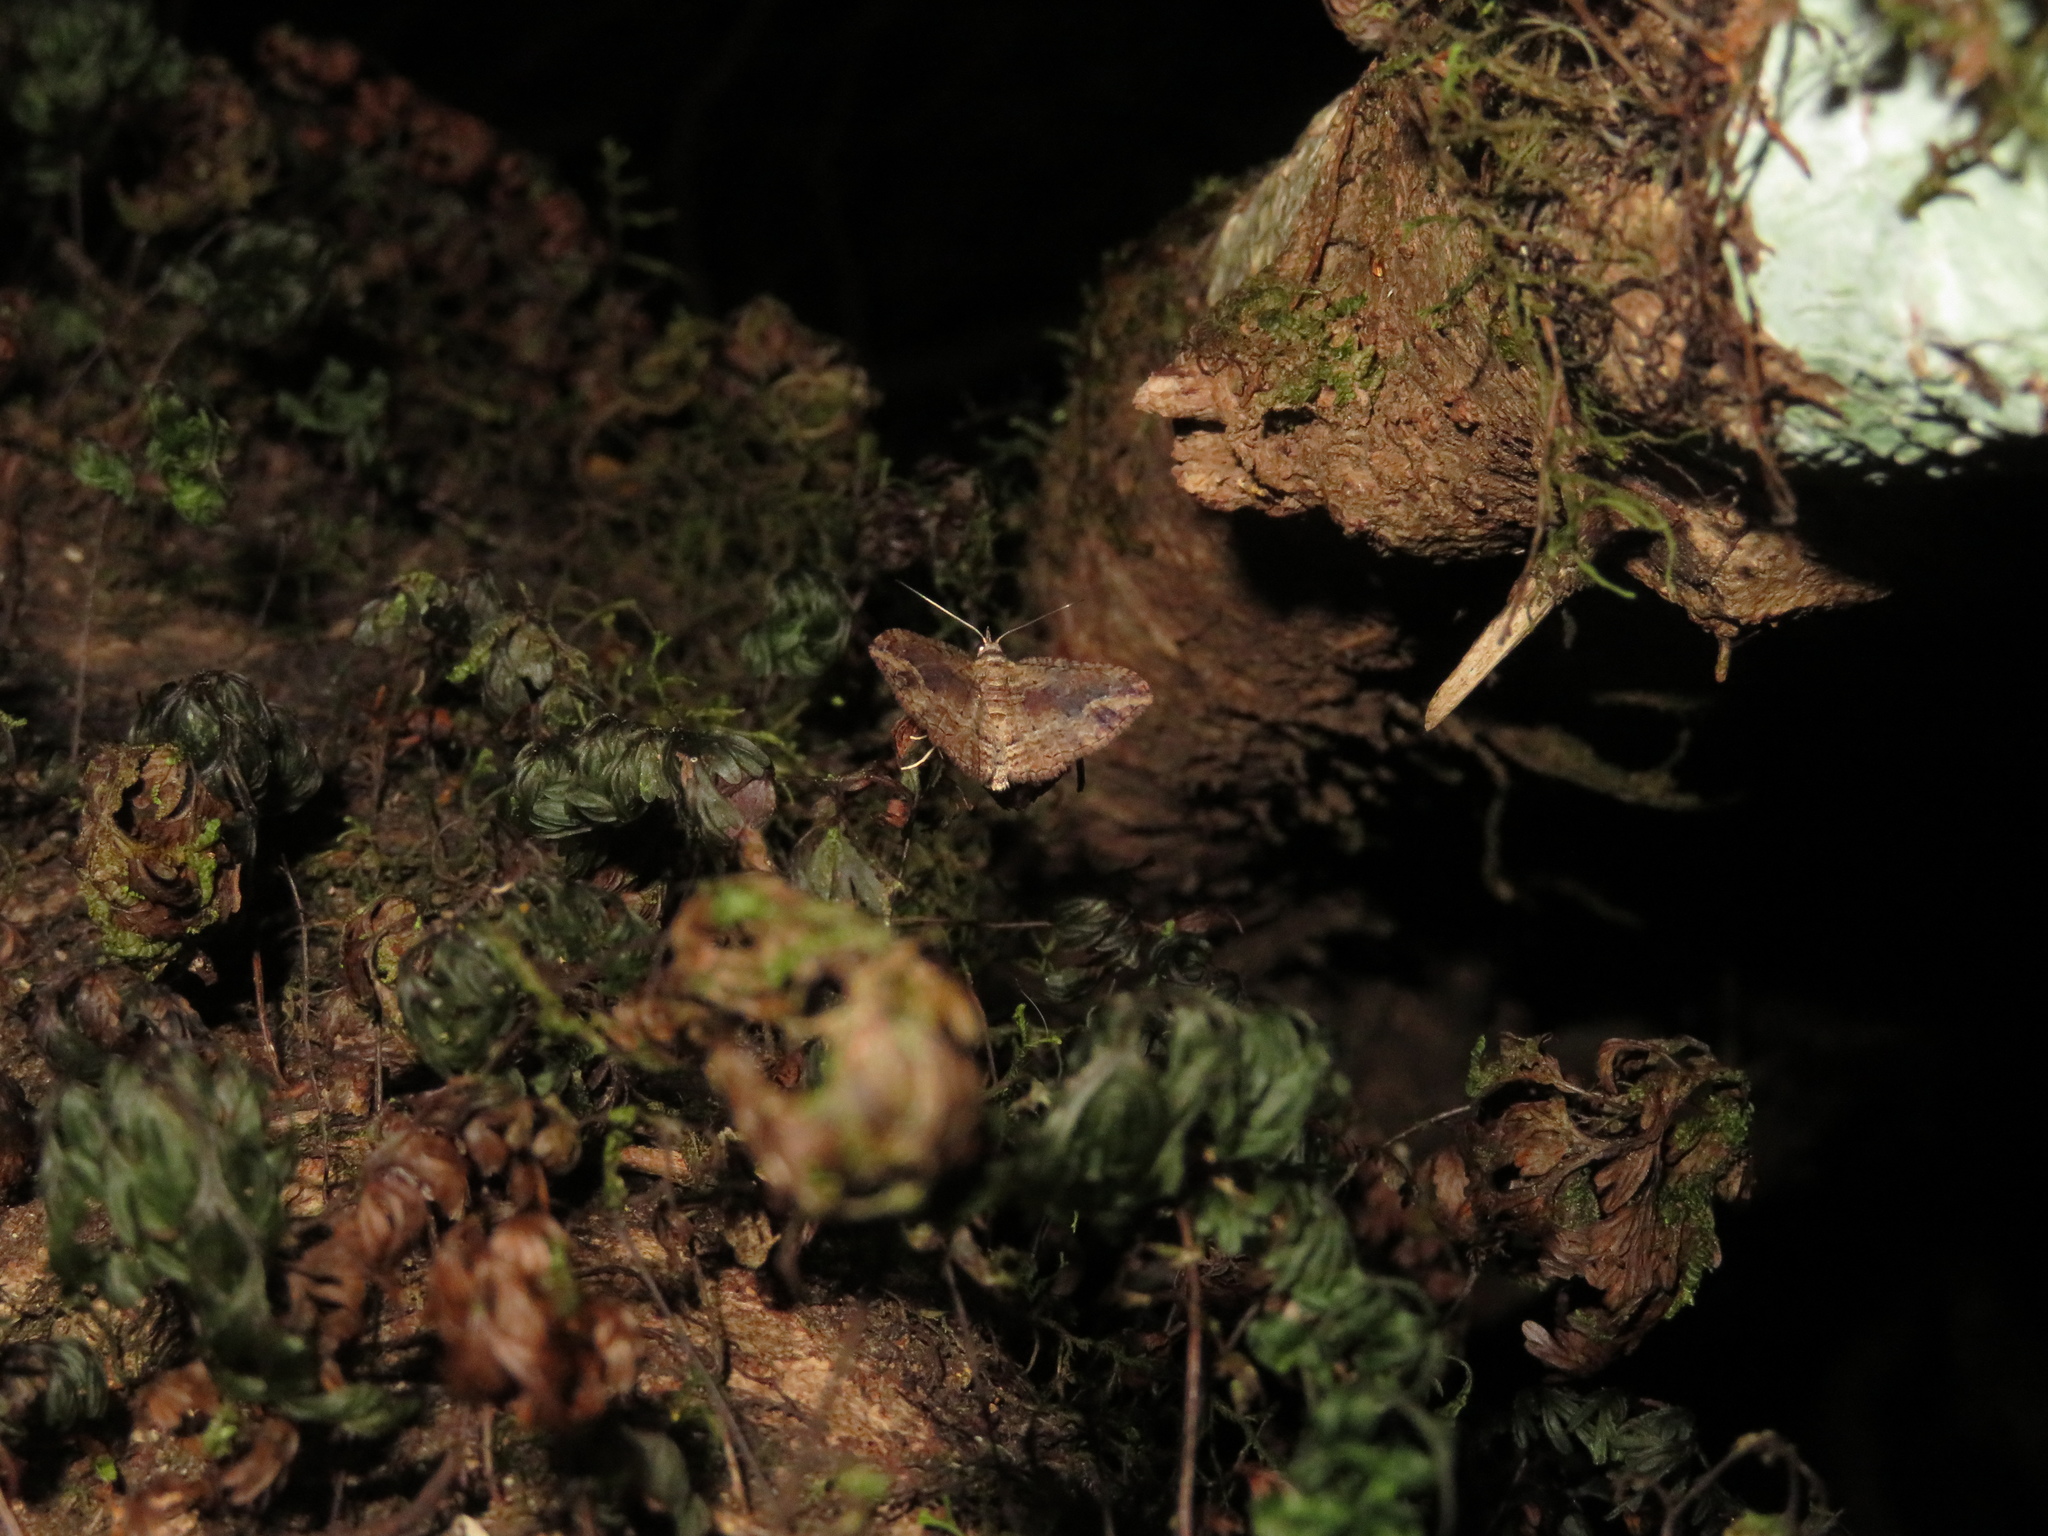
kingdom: Animalia
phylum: Arthropoda
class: Insecta
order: Lepidoptera
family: Geometridae
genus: Chloroclystis
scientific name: Chloroclystis filata
